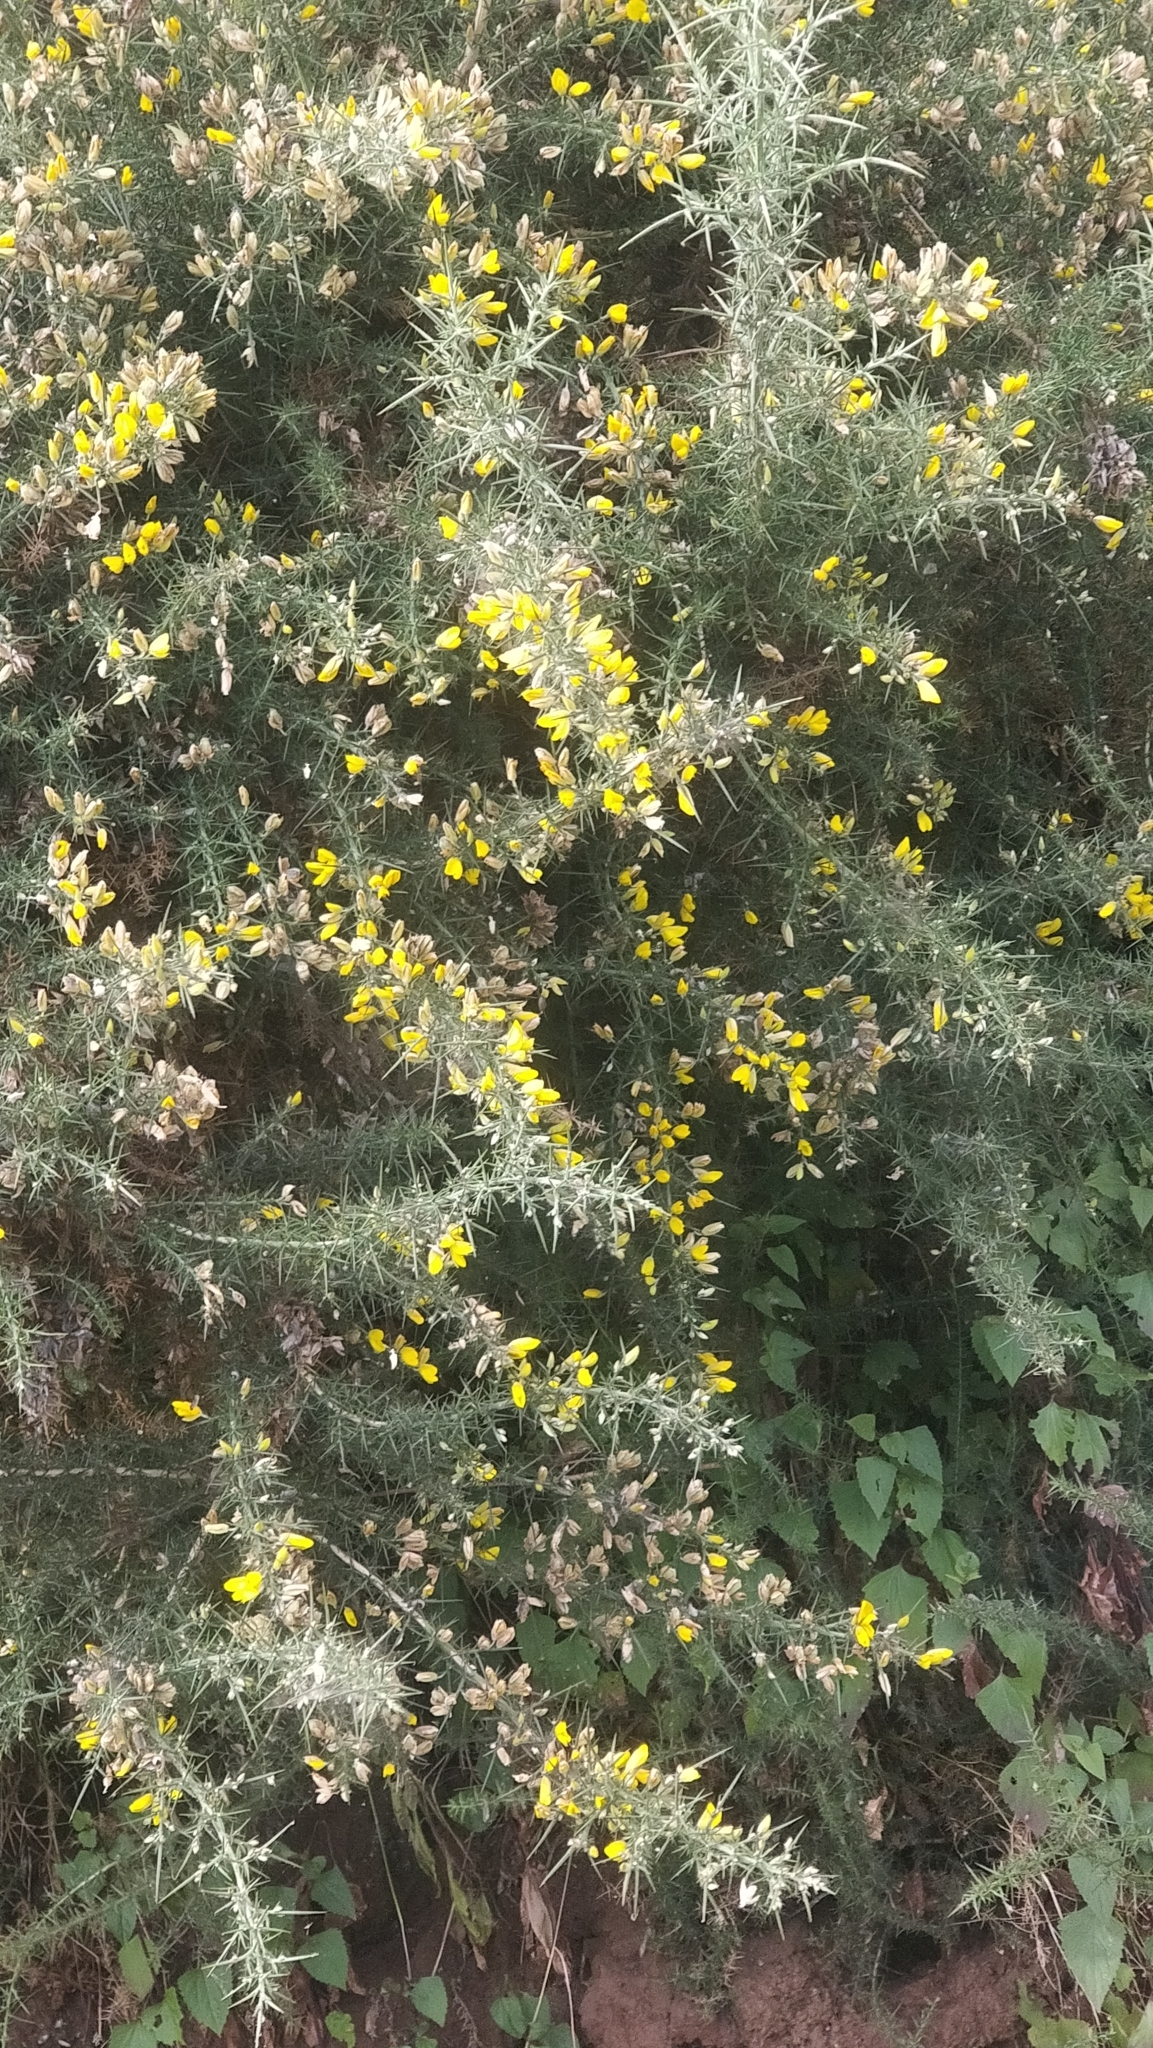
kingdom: Plantae
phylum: Tracheophyta
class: Magnoliopsida
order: Fabales
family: Fabaceae
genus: Ulex
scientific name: Ulex europaeus
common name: Common gorse
